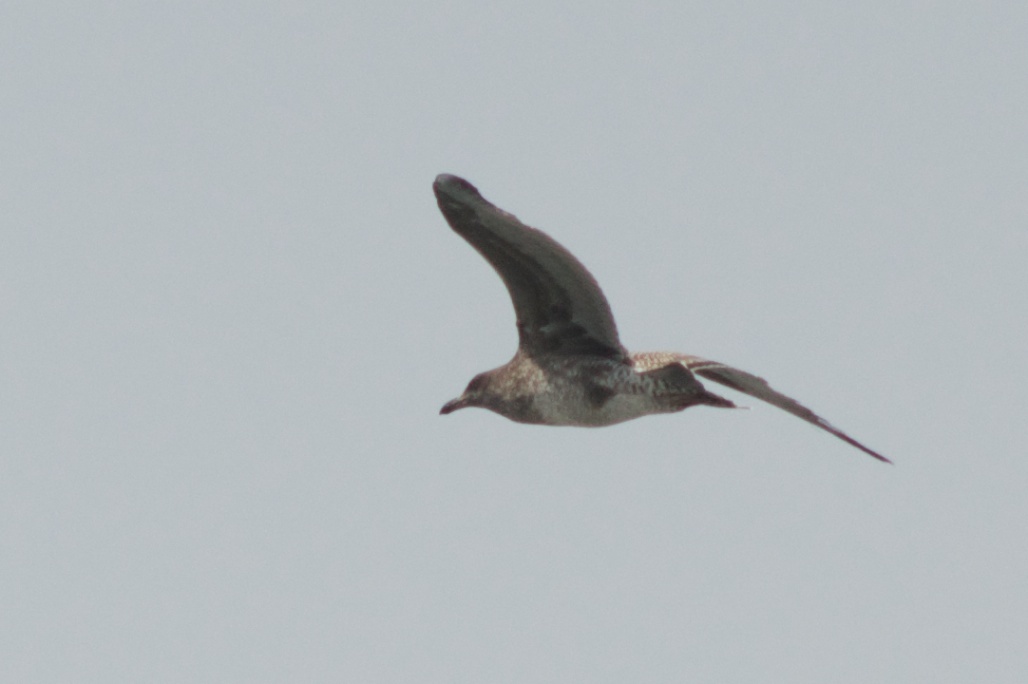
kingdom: Animalia
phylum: Chordata
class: Aves
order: Charadriiformes
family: Laridae
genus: Larus
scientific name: Larus occidentalis
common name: Western gull
